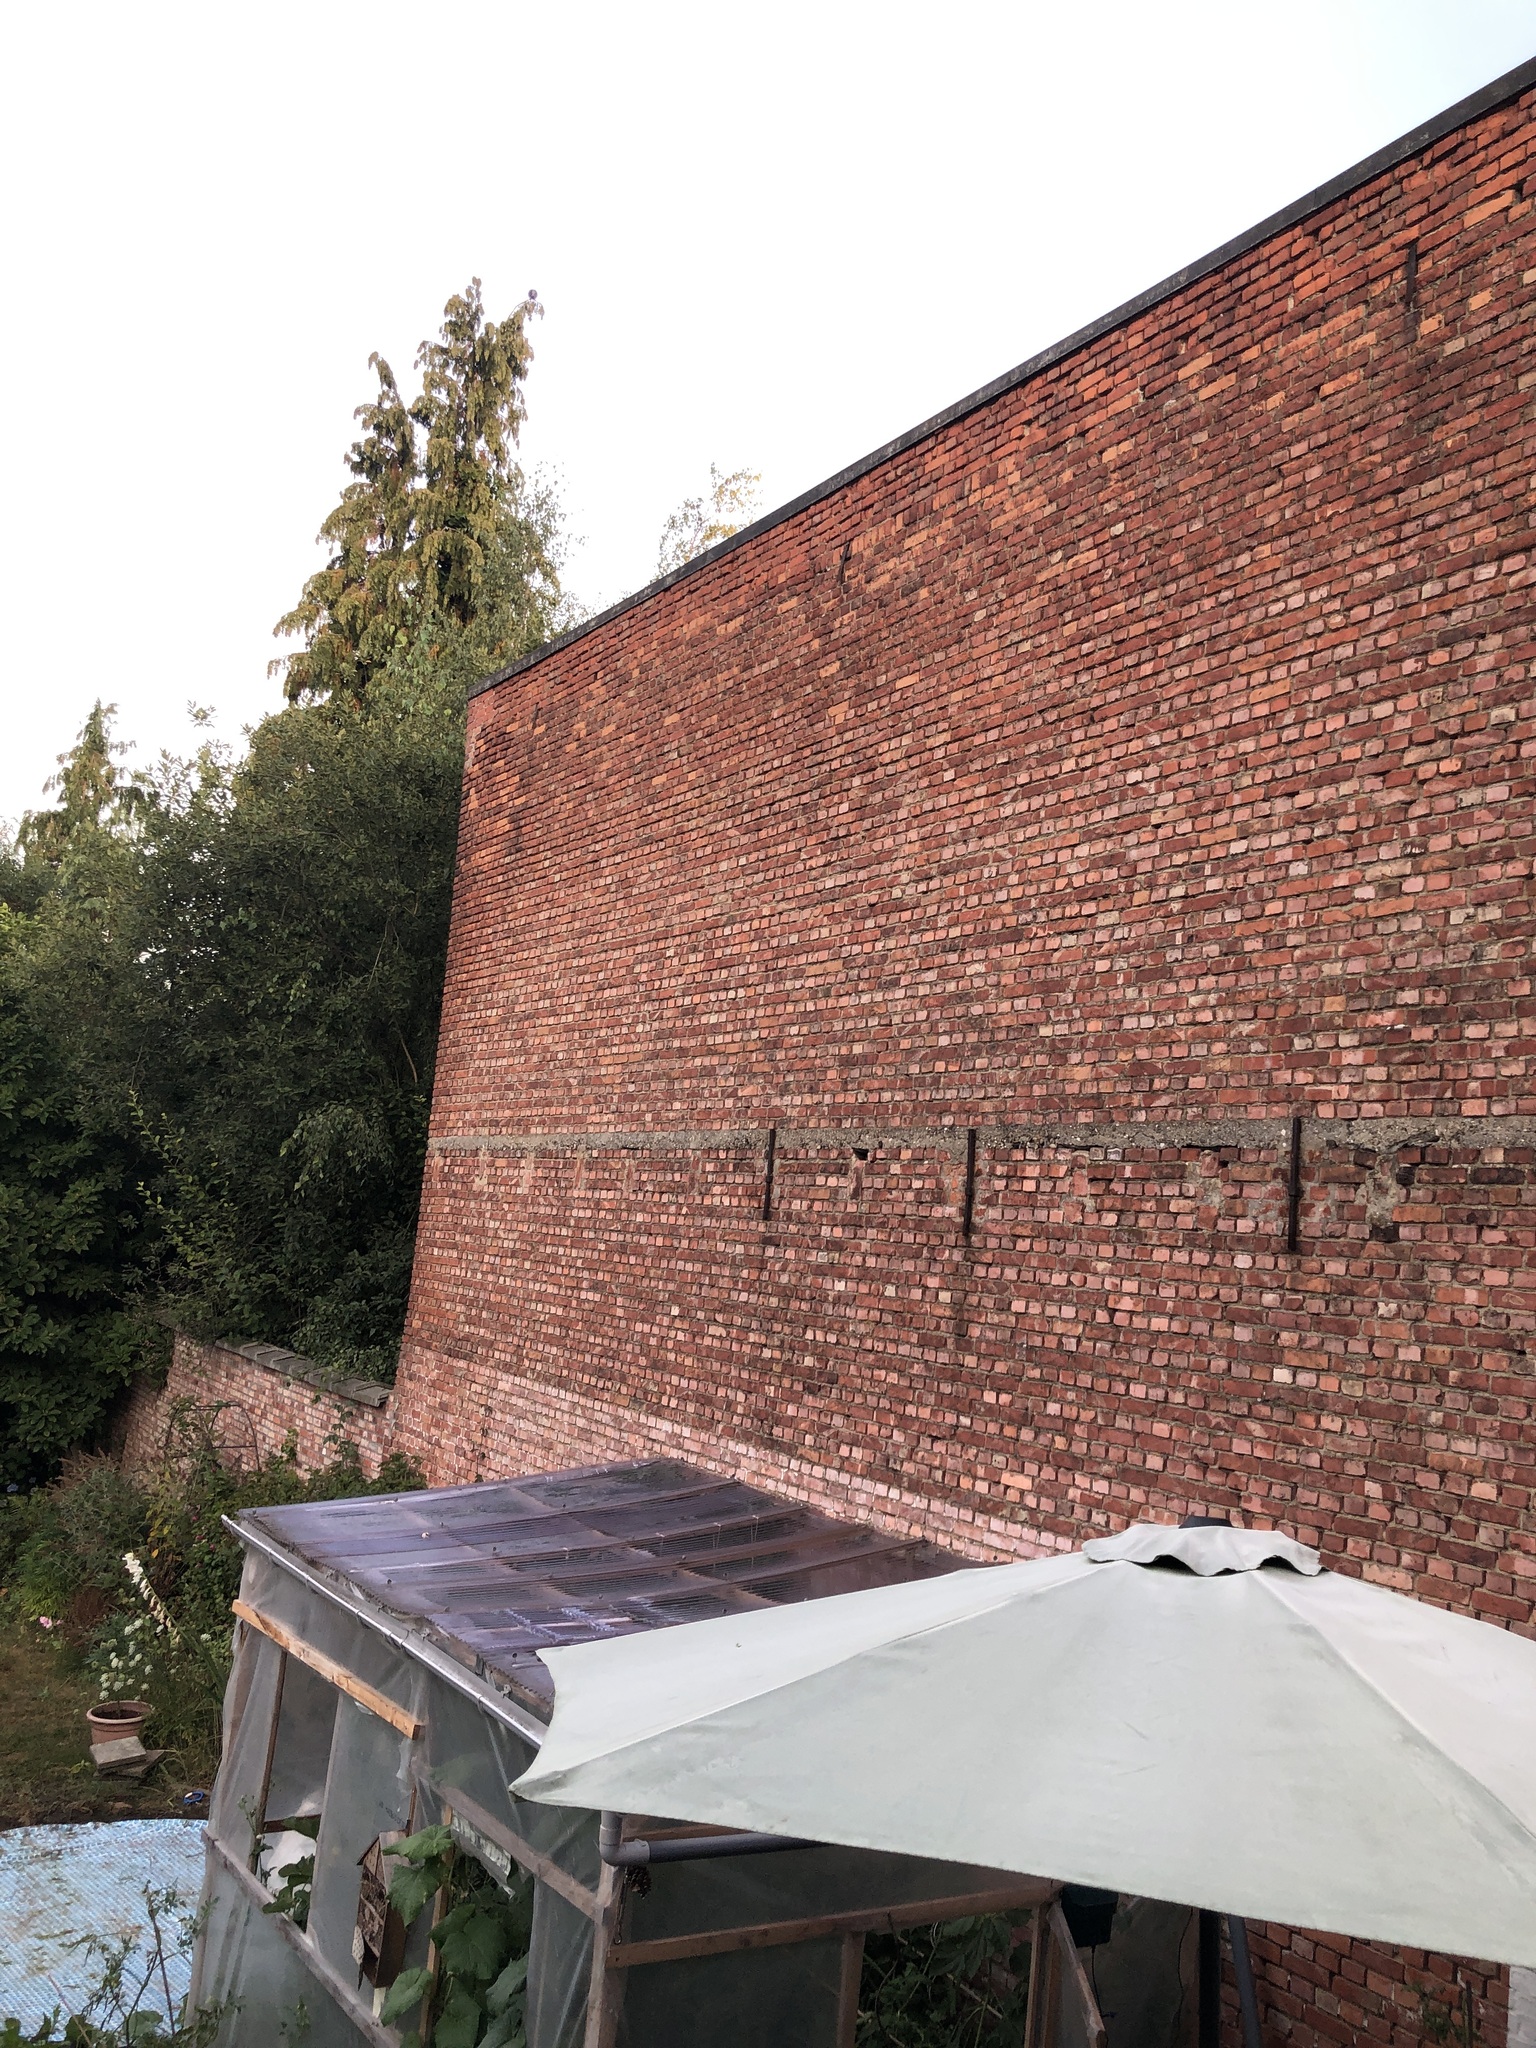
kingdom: Animalia
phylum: Arthropoda
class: Insecta
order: Hymenoptera
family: Vespidae
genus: Vespa
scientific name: Vespa crabro
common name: Hornet
